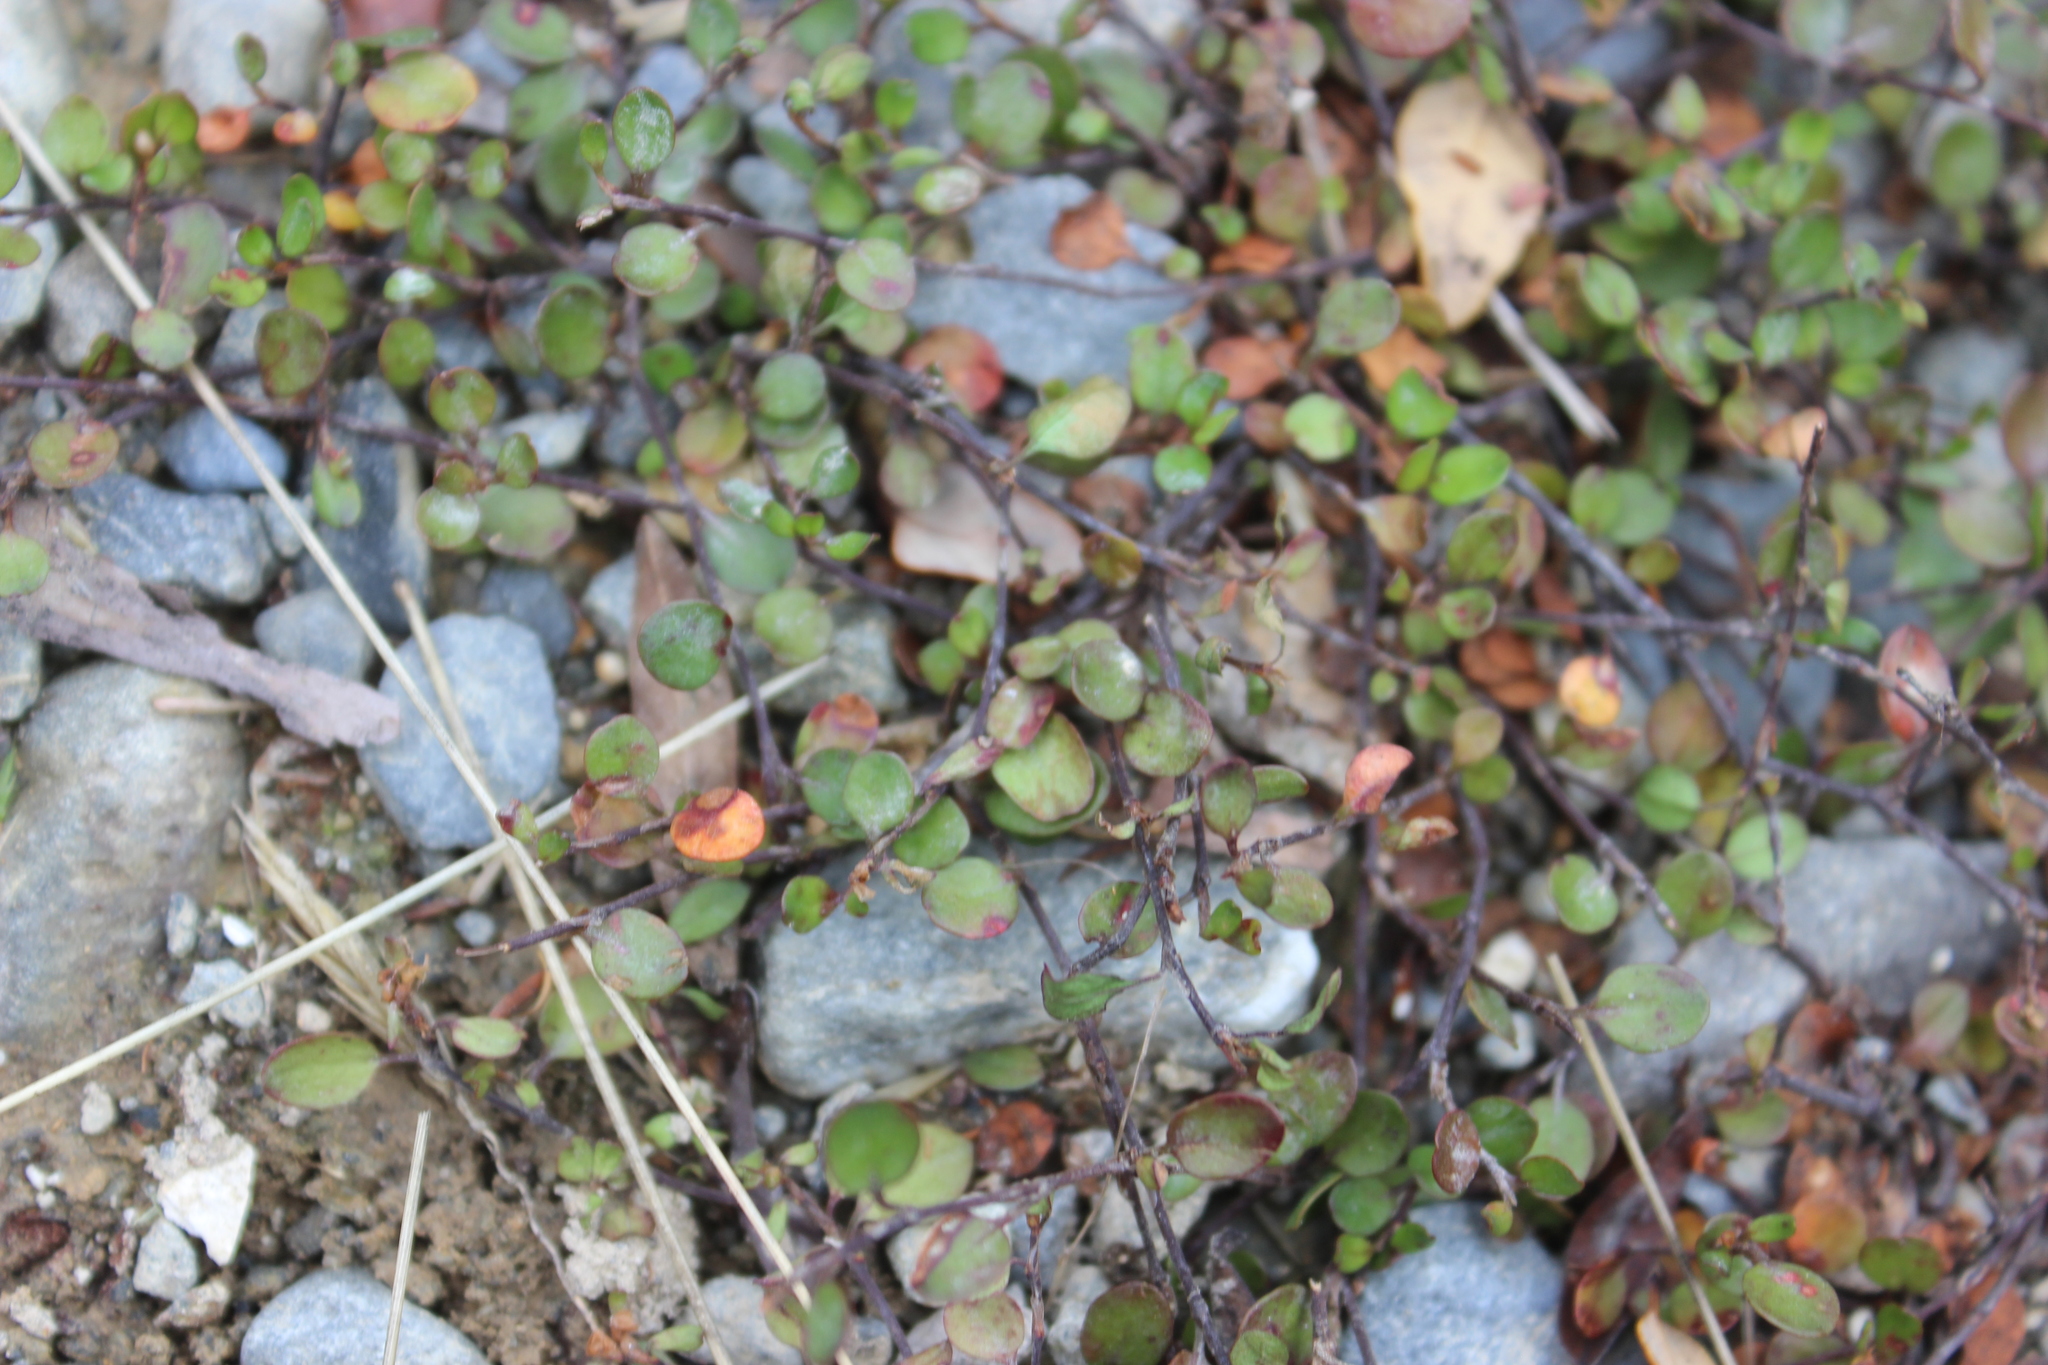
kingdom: Plantae
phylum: Tracheophyta
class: Magnoliopsida
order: Caryophyllales
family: Polygonaceae
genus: Muehlenbeckia
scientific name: Muehlenbeckia axillaris
